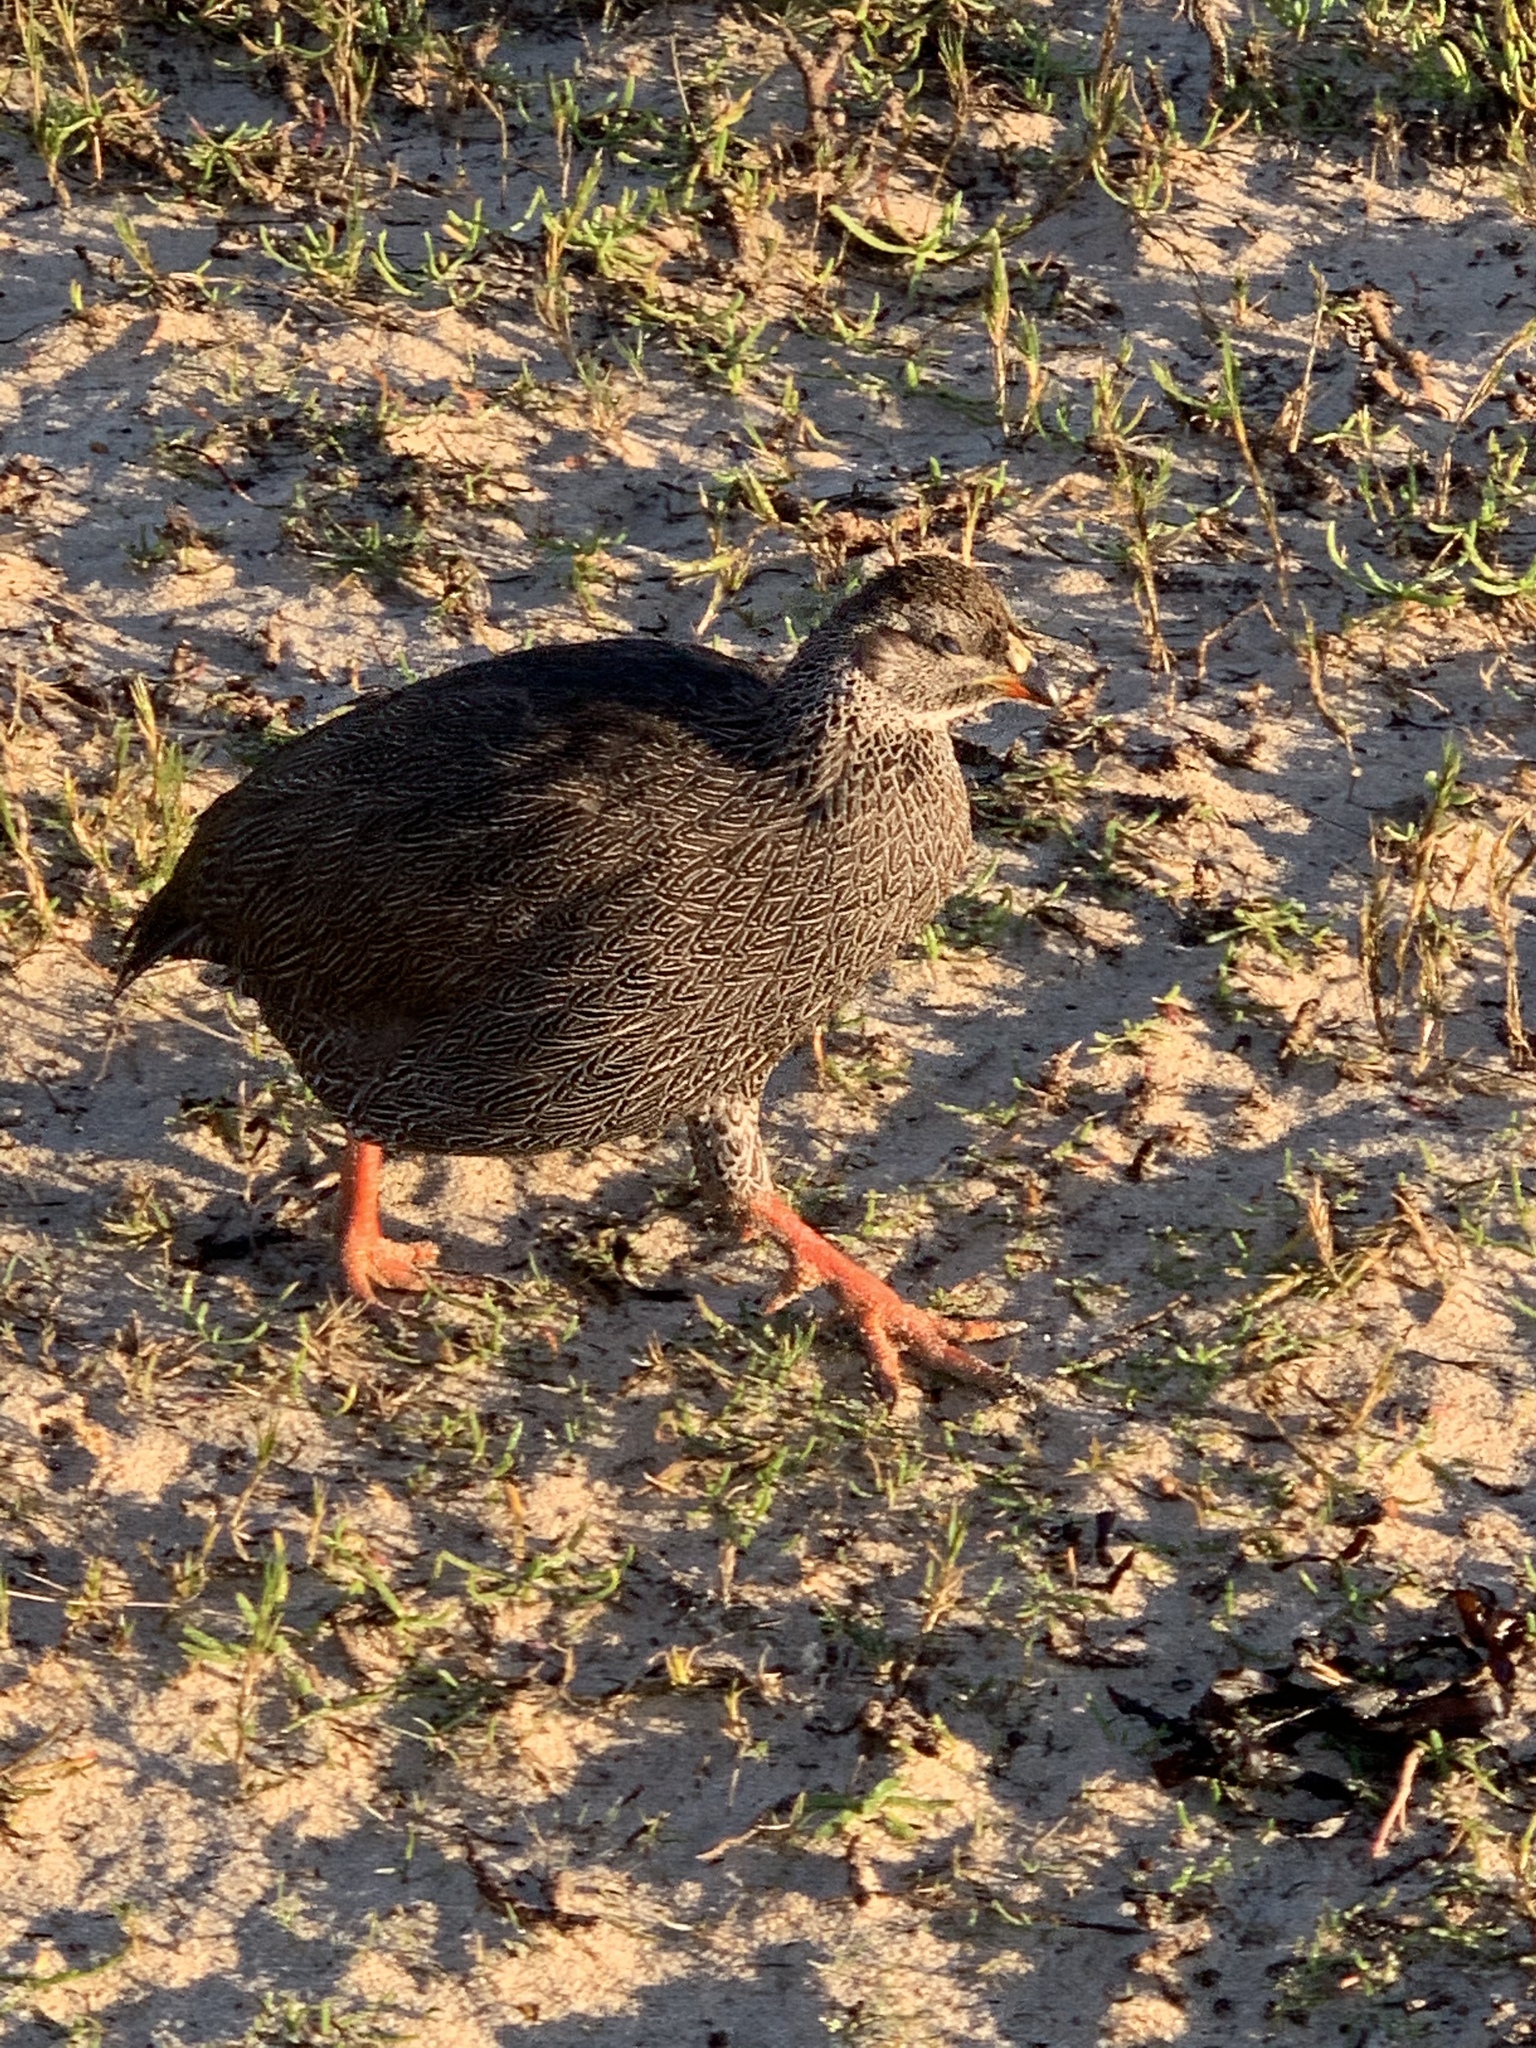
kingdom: Animalia
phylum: Chordata
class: Aves
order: Galliformes
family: Phasianidae
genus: Pternistis
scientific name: Pternistis capensis
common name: Cape spurfowl
